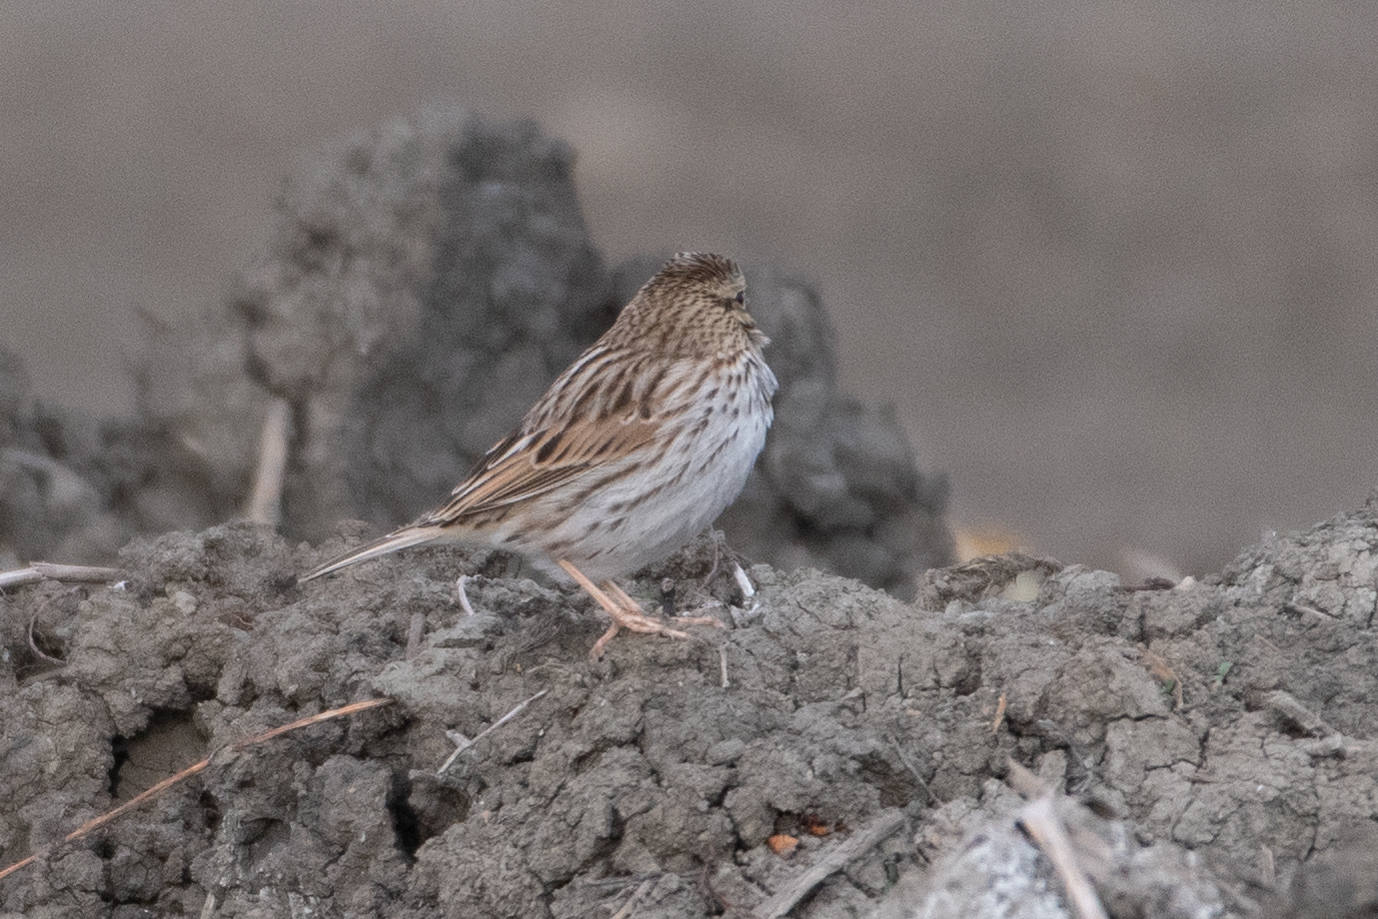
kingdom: Animalia
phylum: Chordata
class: Aves
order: Passeriformes
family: Passerellidae
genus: Passerculus
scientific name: Passerculus sandwichensis
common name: Savannah sparrow
